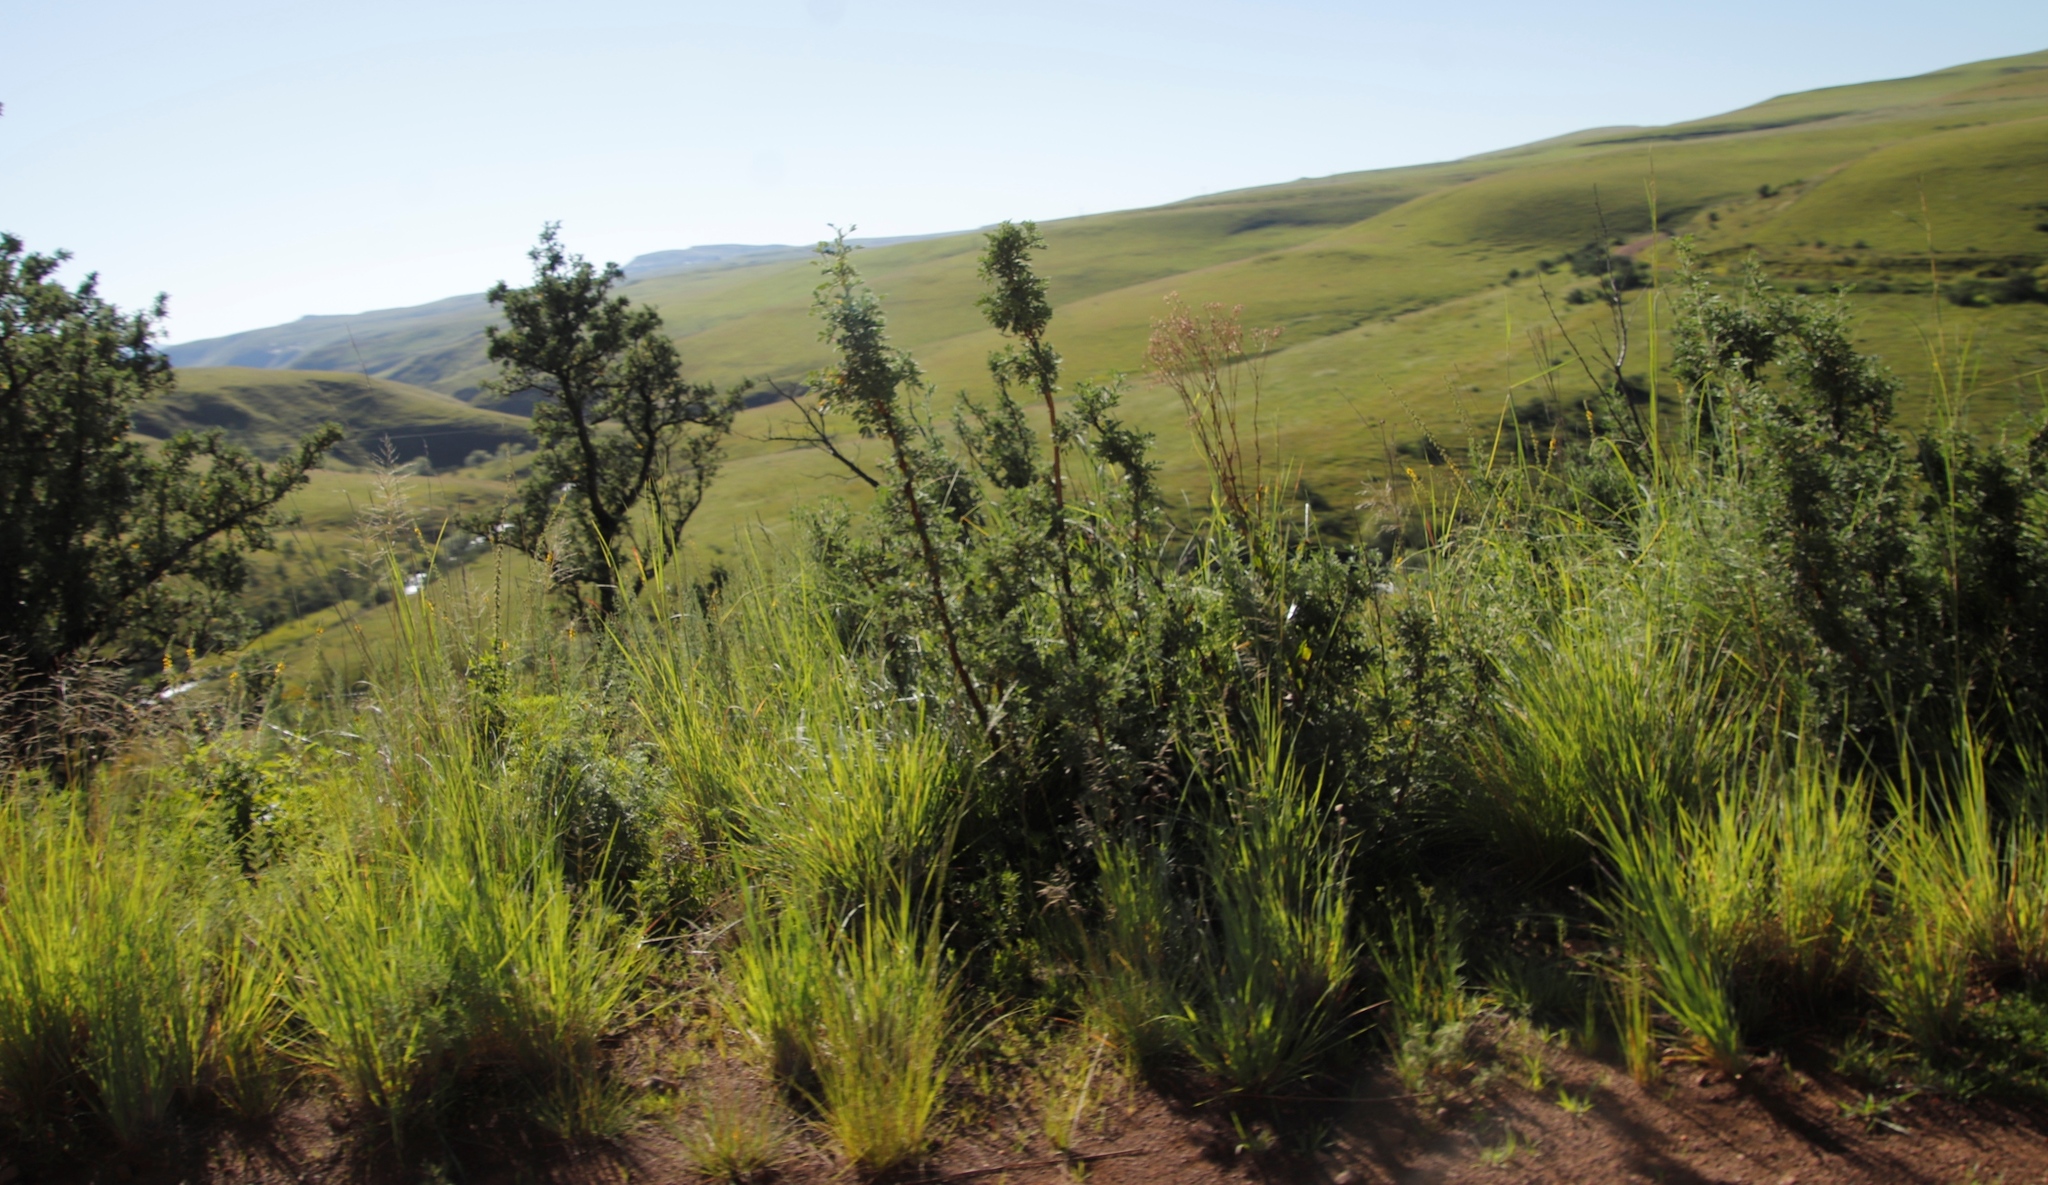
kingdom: Plantae
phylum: Tracheophyta
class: Magnoliopsida
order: Rosales
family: Rosaceae
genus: Leucosidea
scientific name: Leucosidea sericea
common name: Oldwood
